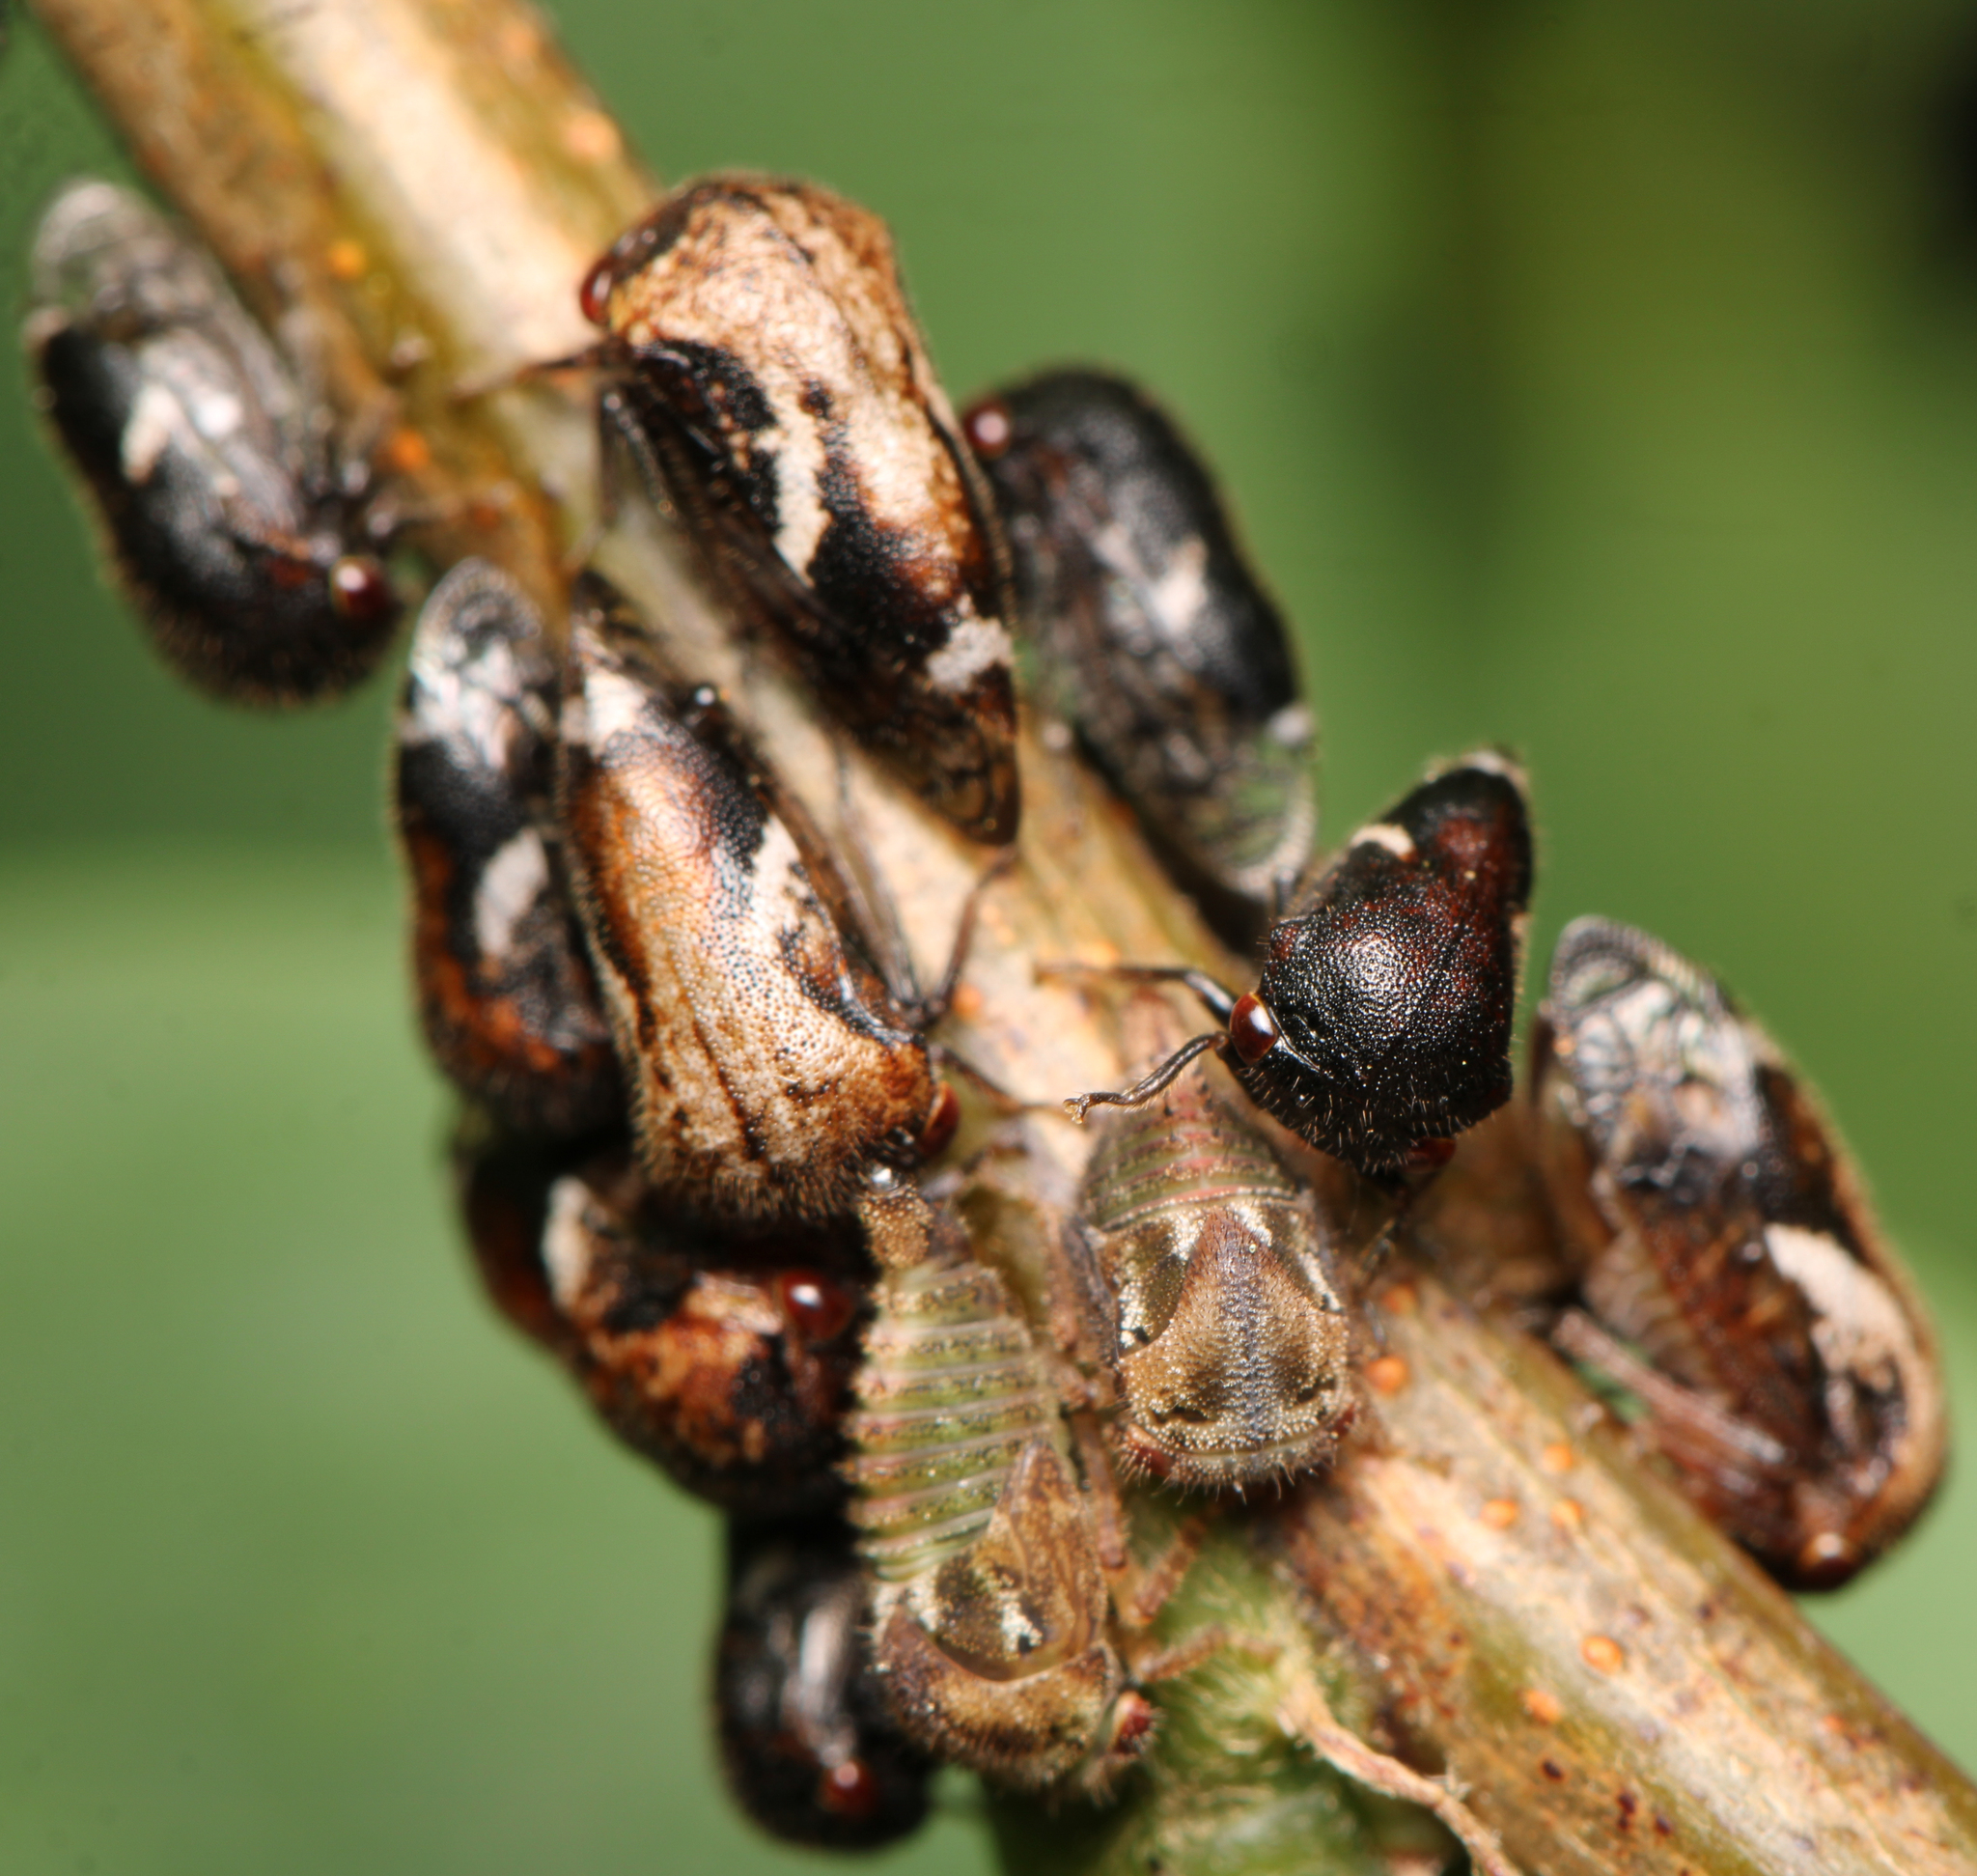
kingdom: Animalia
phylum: Arthropoda
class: Insecta
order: Hemiptera
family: Membracidae
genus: Vanduzea
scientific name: Vanduzea arquata
